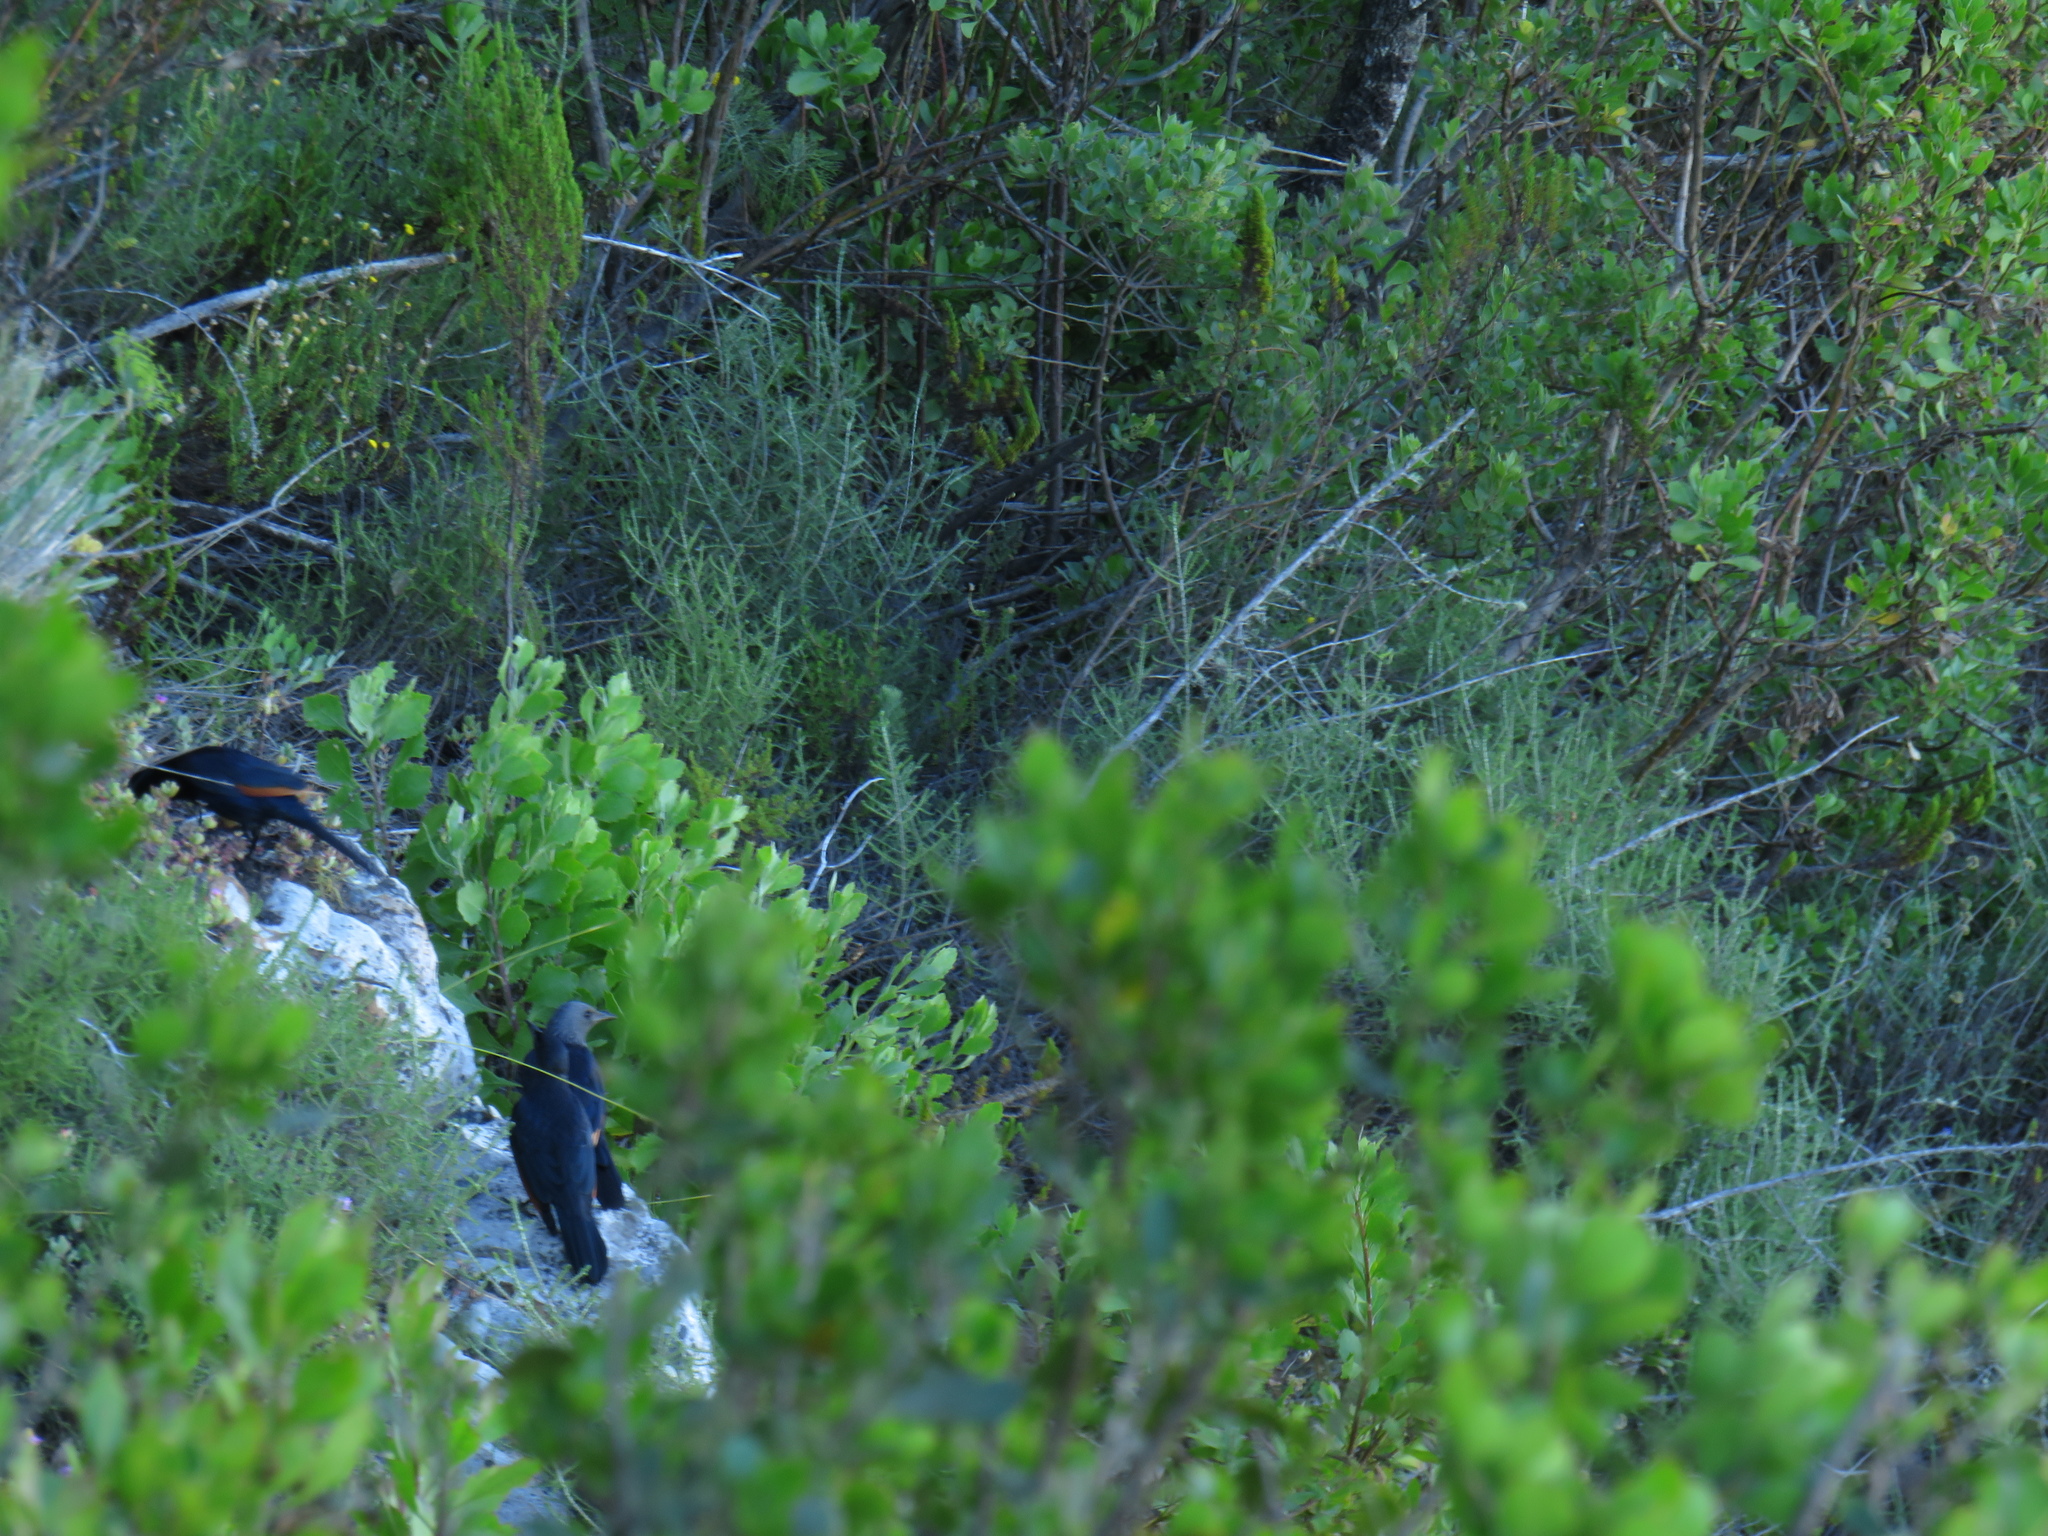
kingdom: Animalia
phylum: Chordata
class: Aves
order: Passeriformes
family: Sturnidae
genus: Onychognathus
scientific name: Onychognathus morio
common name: Red-winged starling
